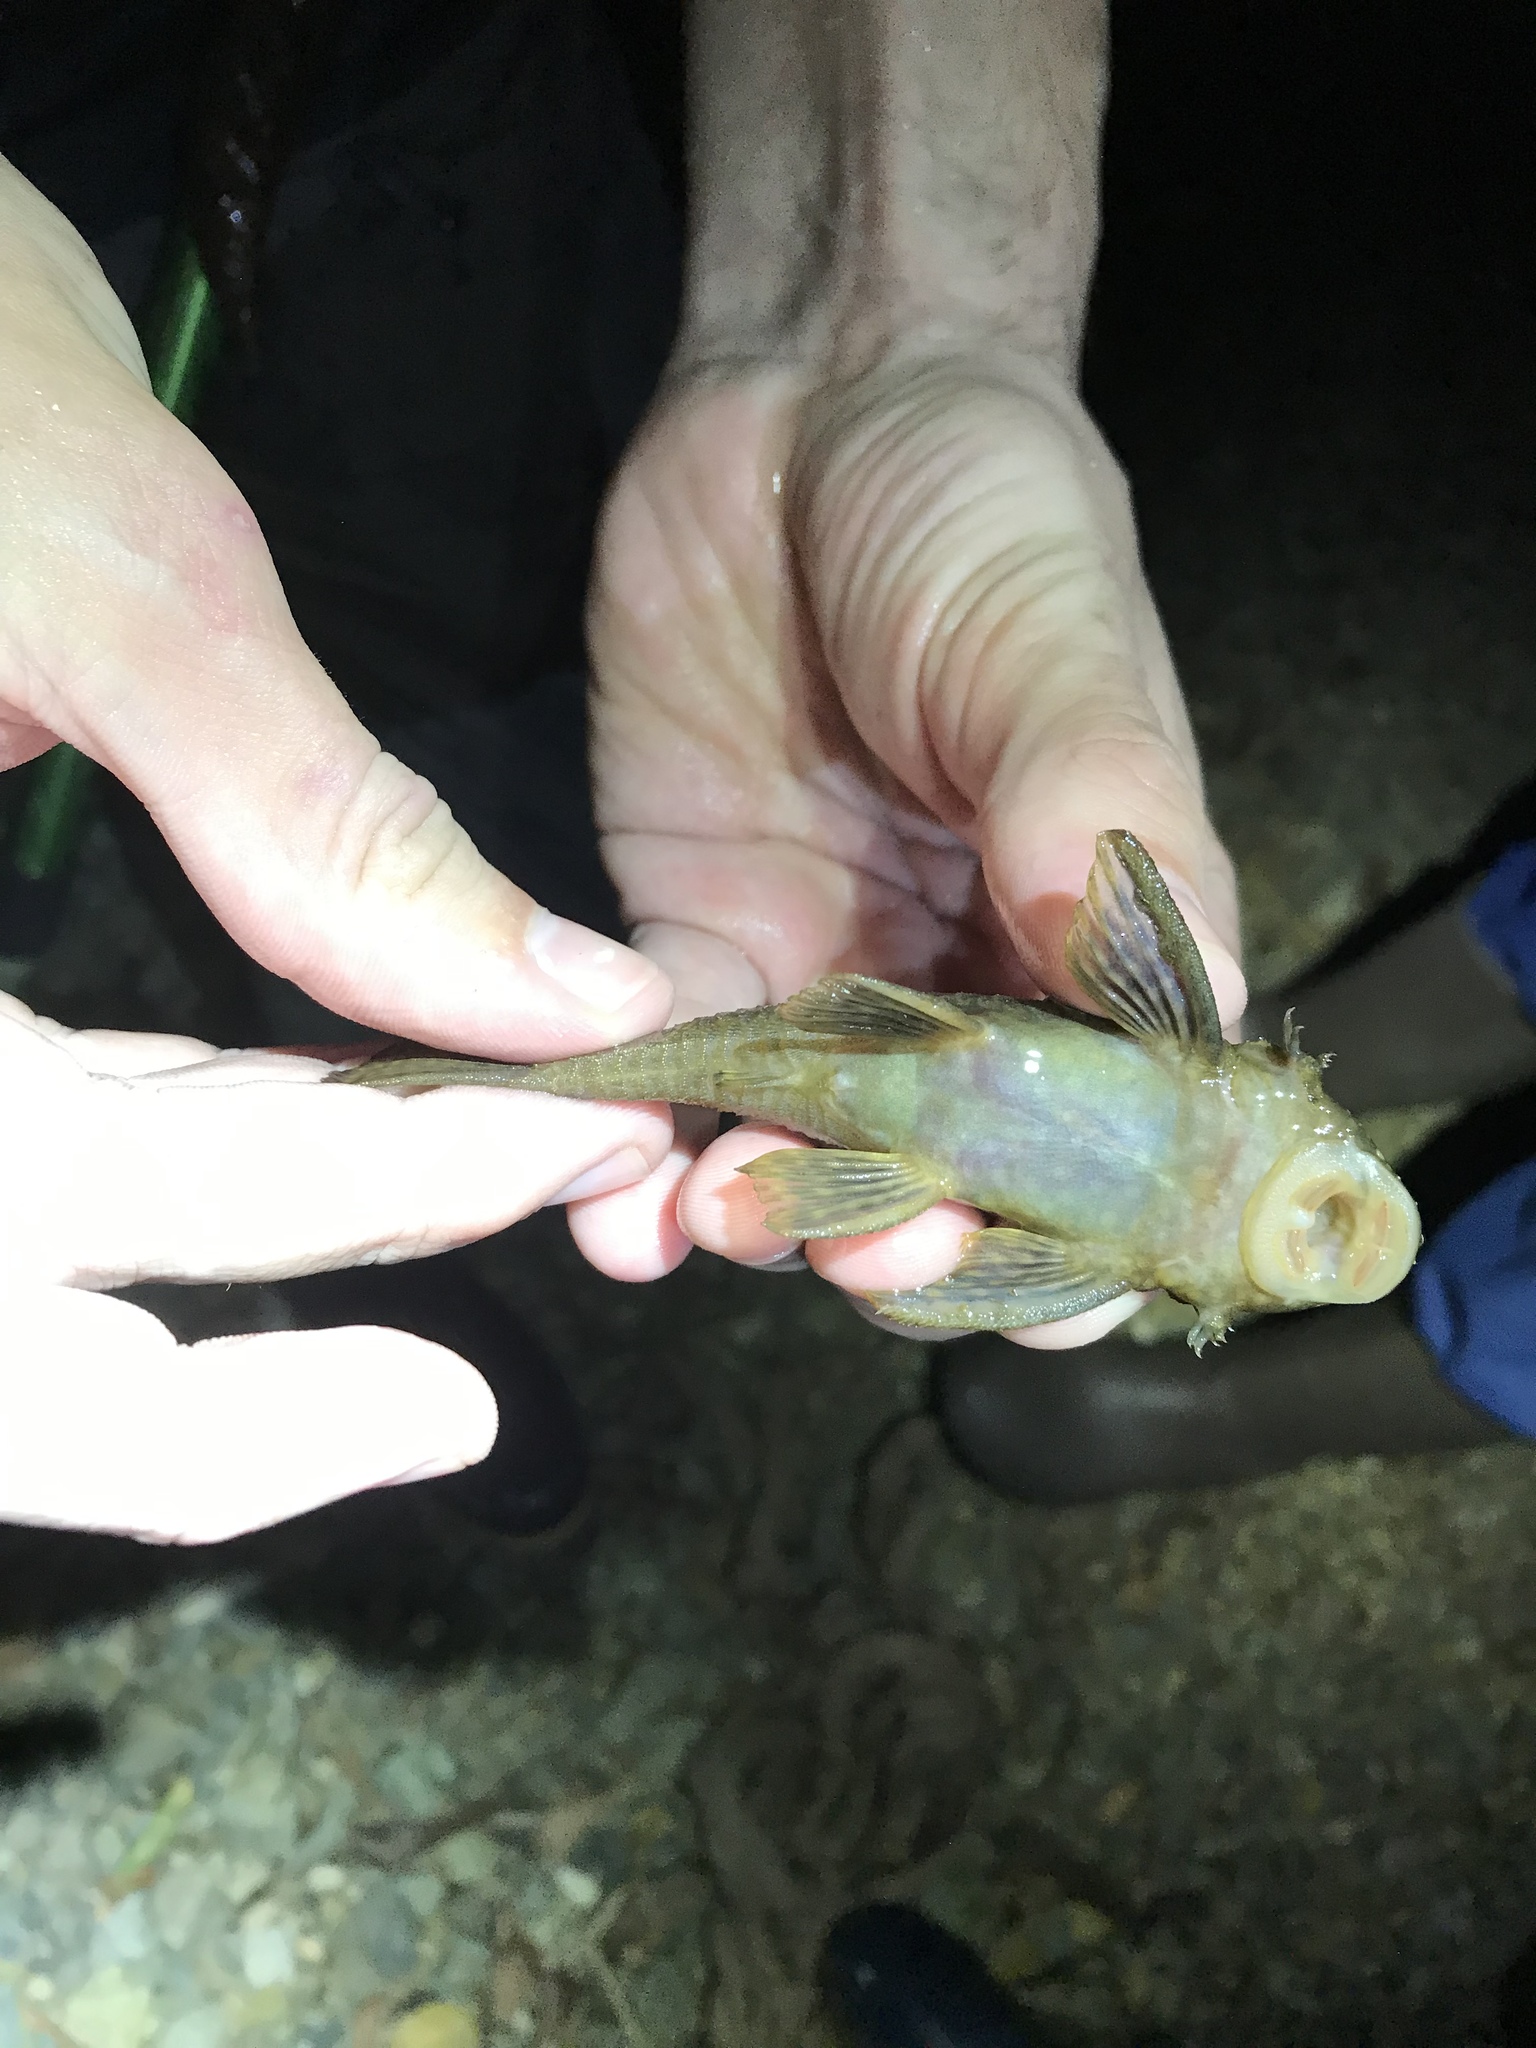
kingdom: Animalia
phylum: Chordata
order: Siluriformes
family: Loricariidae
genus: Ancistrus
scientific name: Ancistrus chagresi
